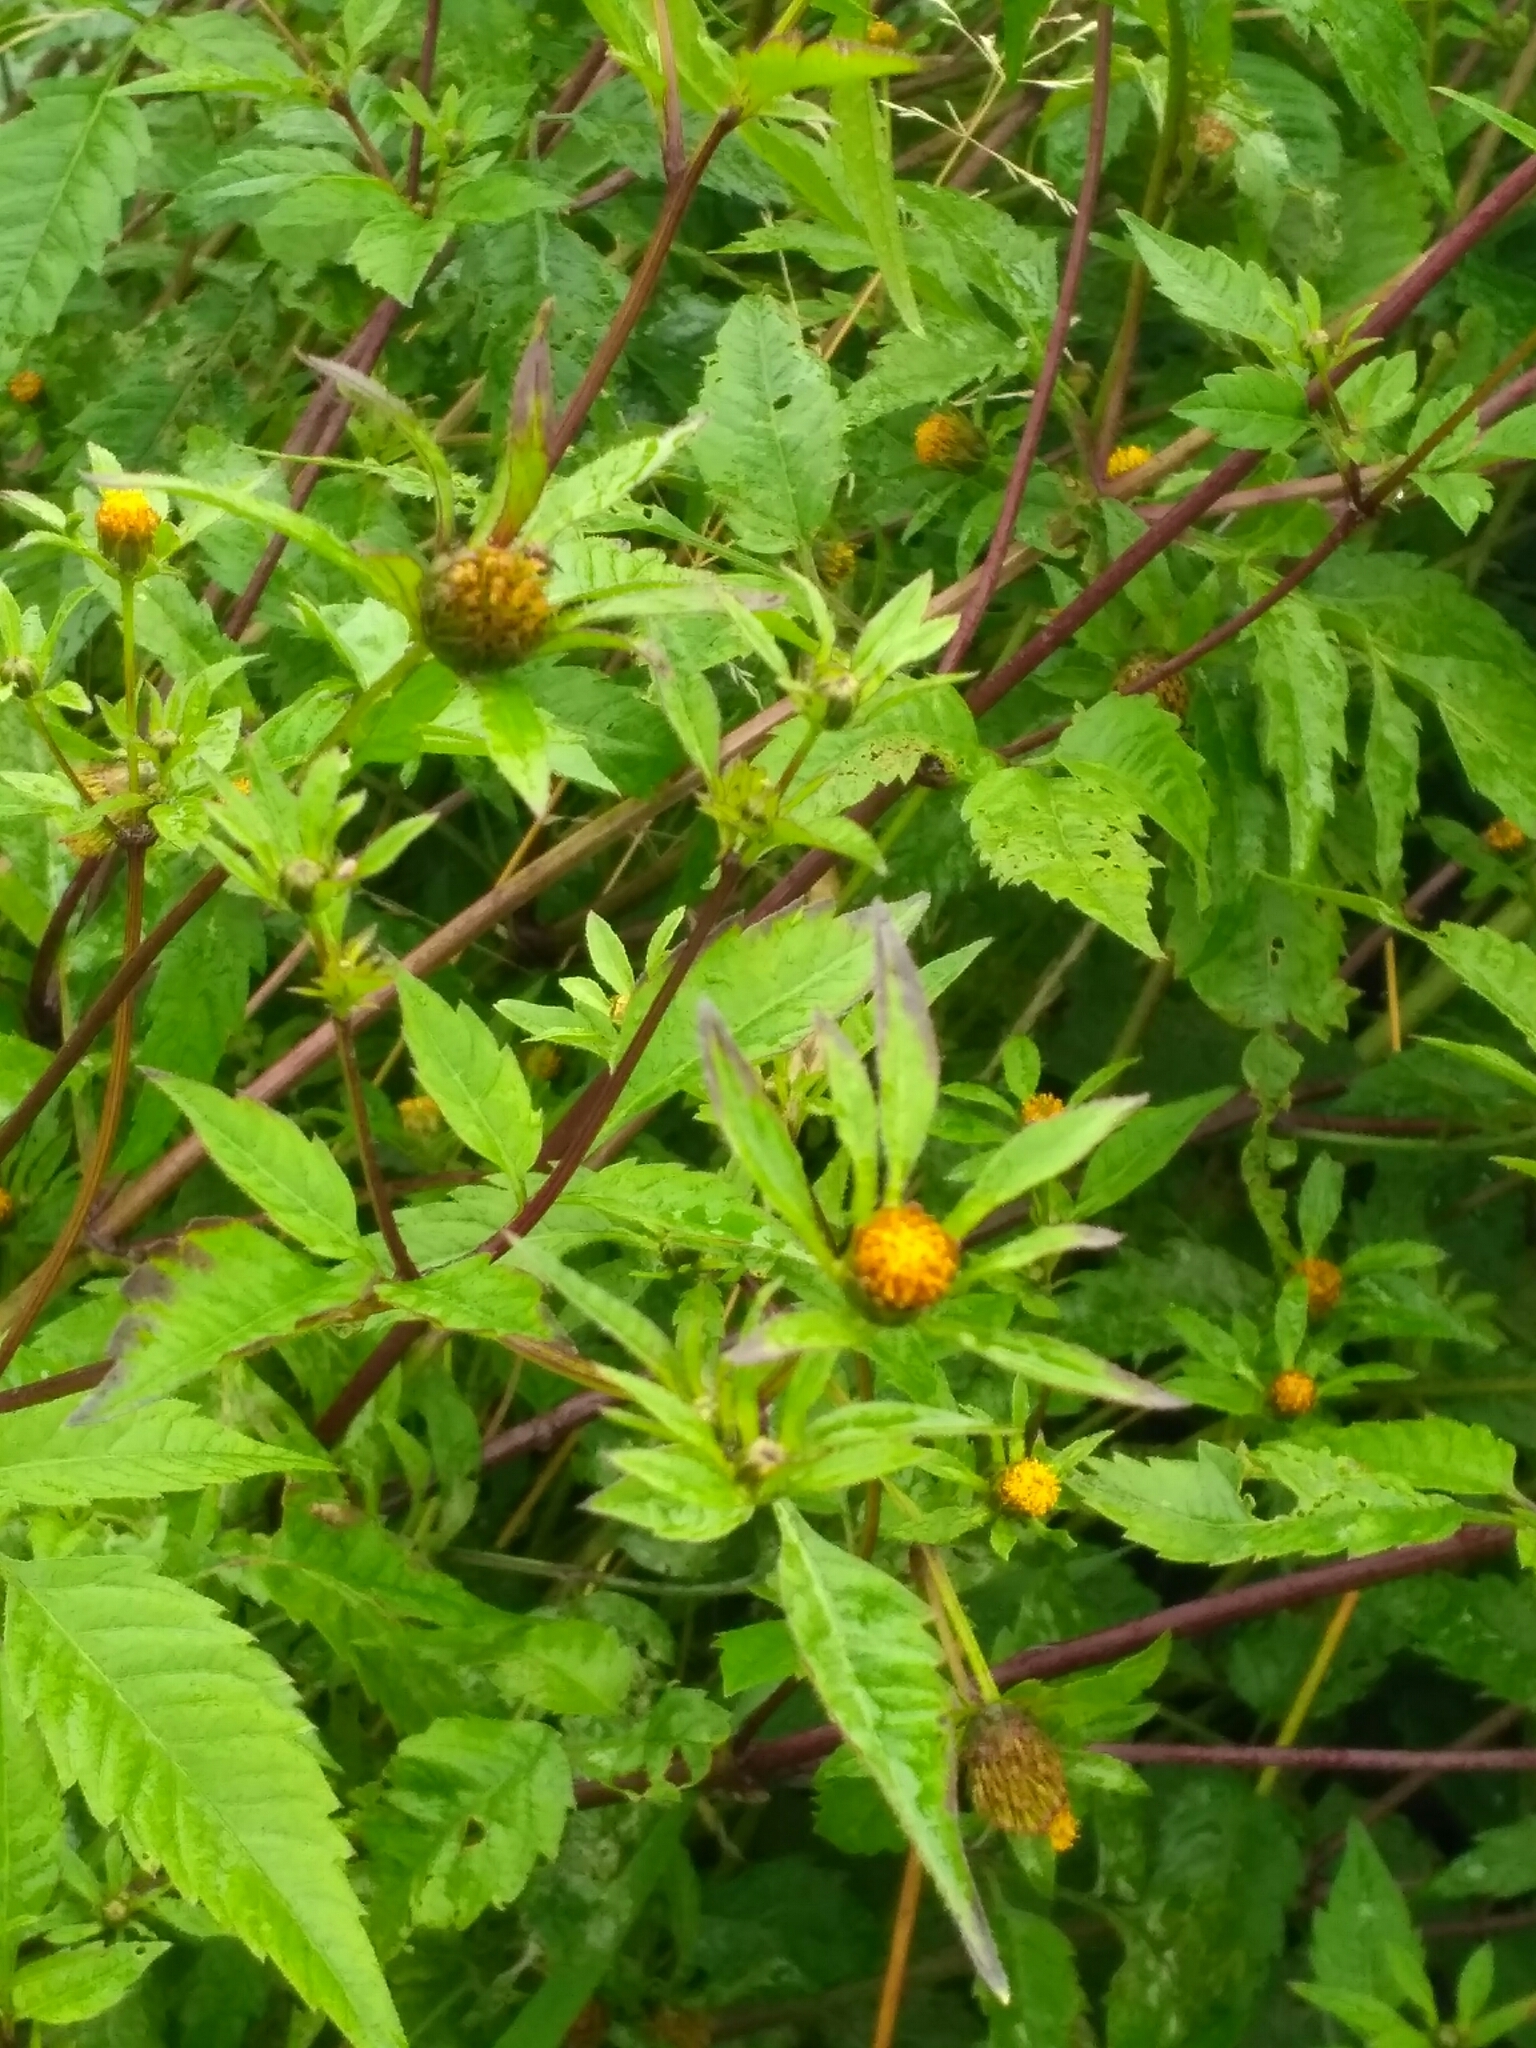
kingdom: Plantae
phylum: Tracheophyta
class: Magnoliopsida
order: Asterales
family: Asteraceae
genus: Bidens
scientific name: Bidens frondosa
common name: Beggarticks
